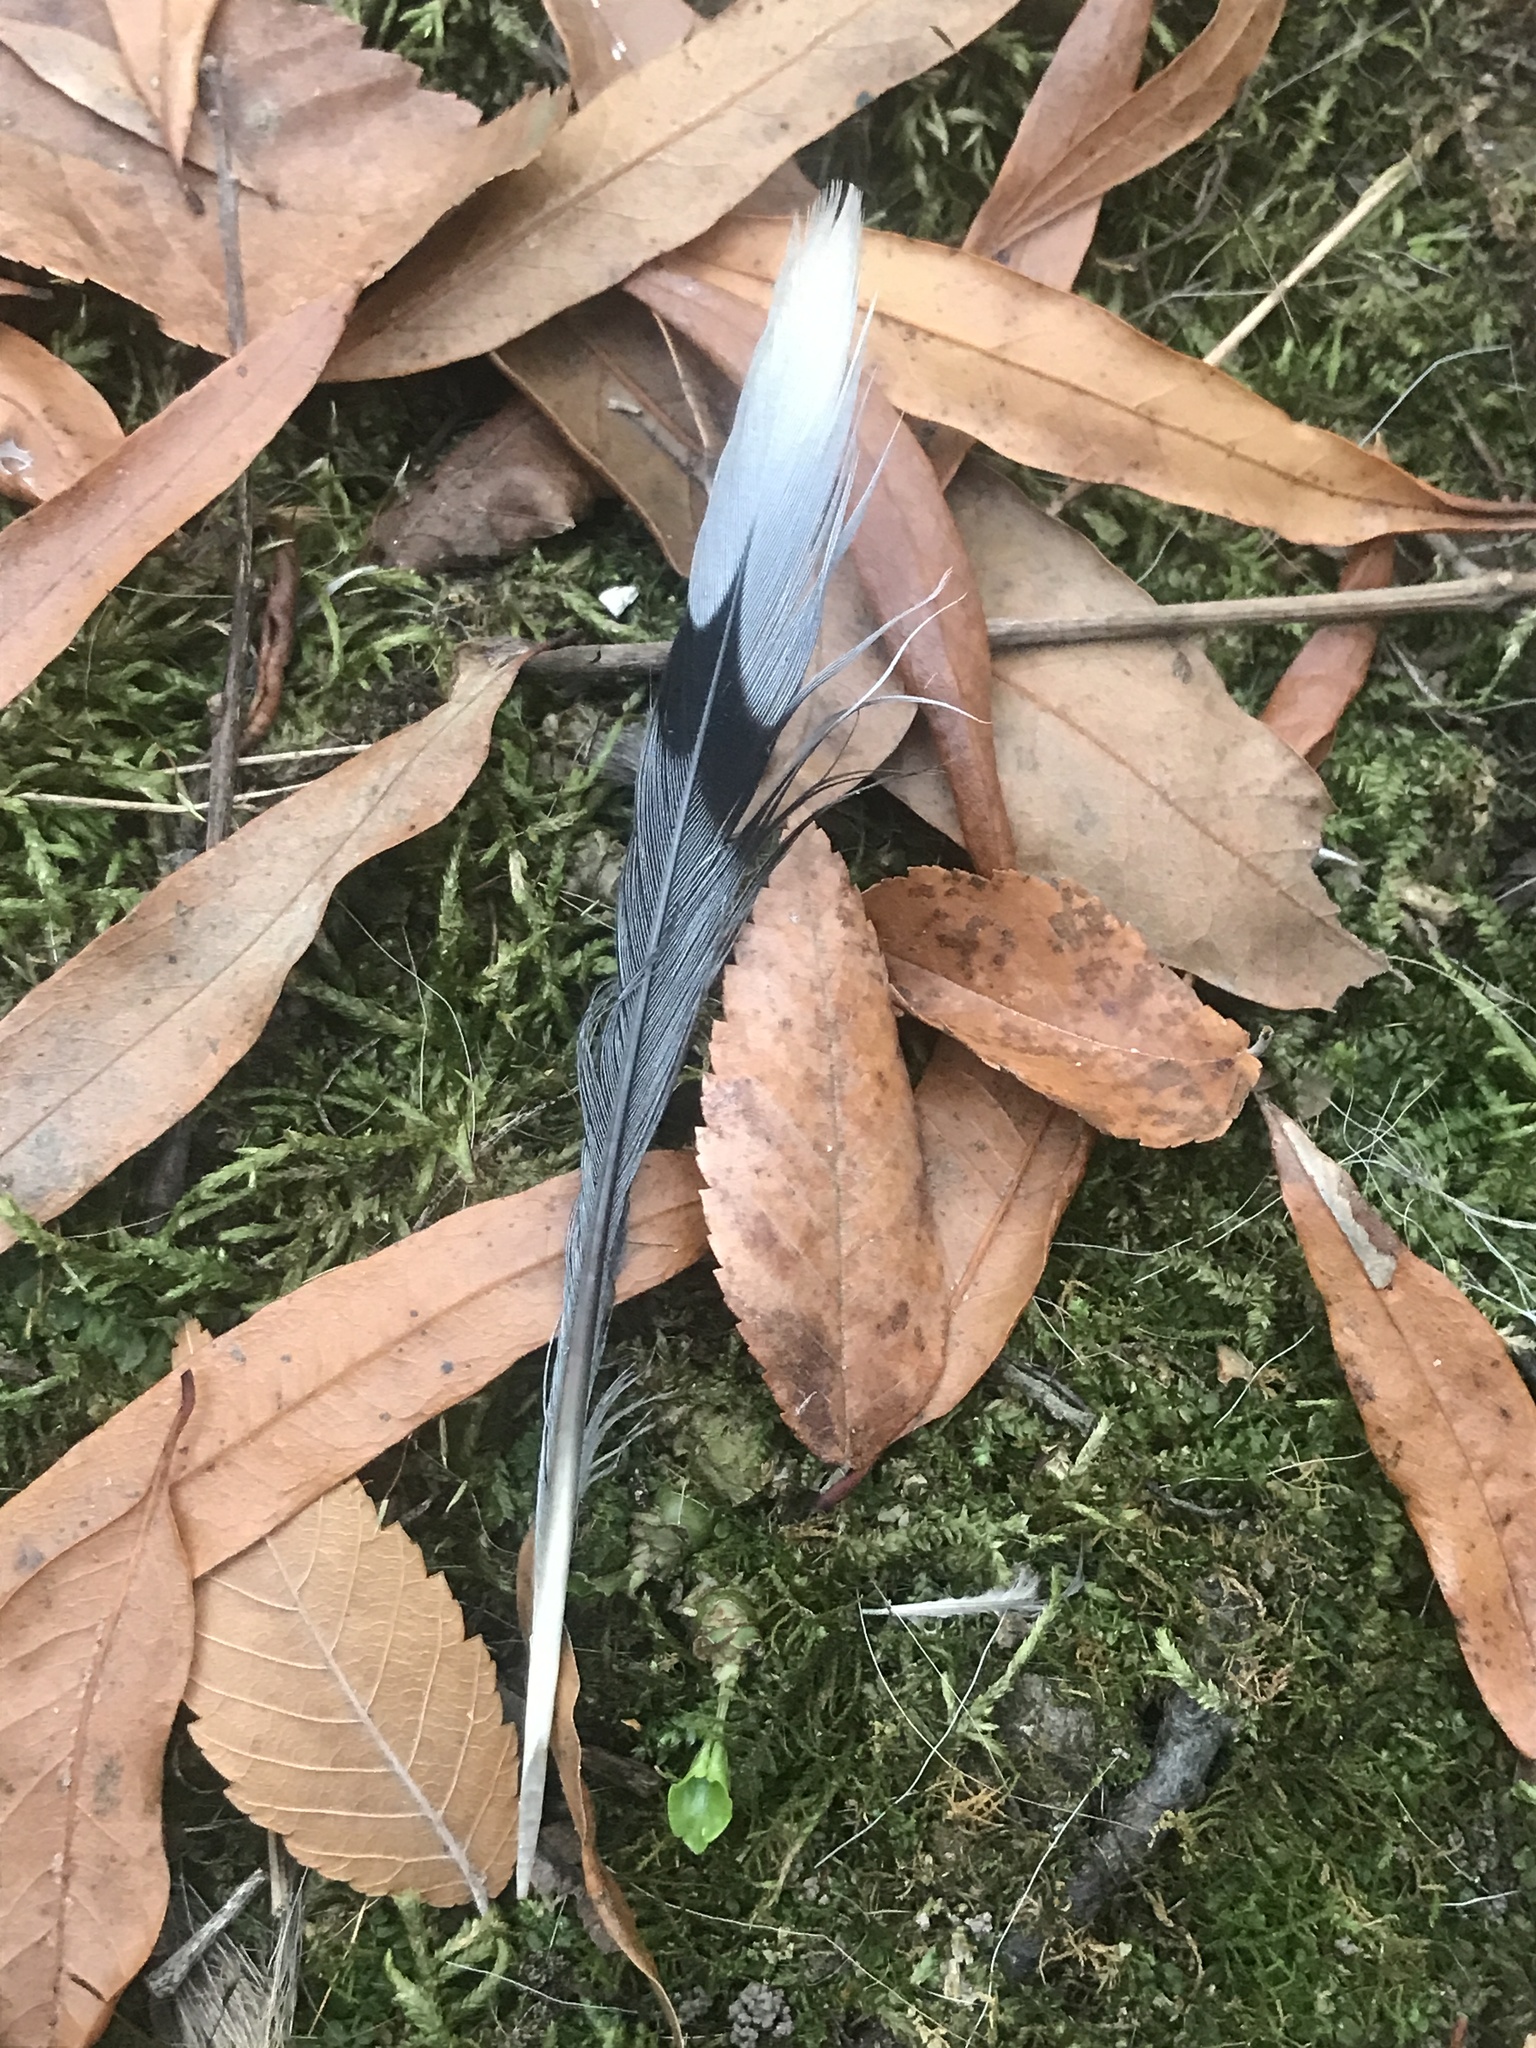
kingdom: Animalia
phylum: Chordata
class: Aves
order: Columbiformes
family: Columbidae
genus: Zenaida
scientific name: Zenaida macroura
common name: Mourning dove
